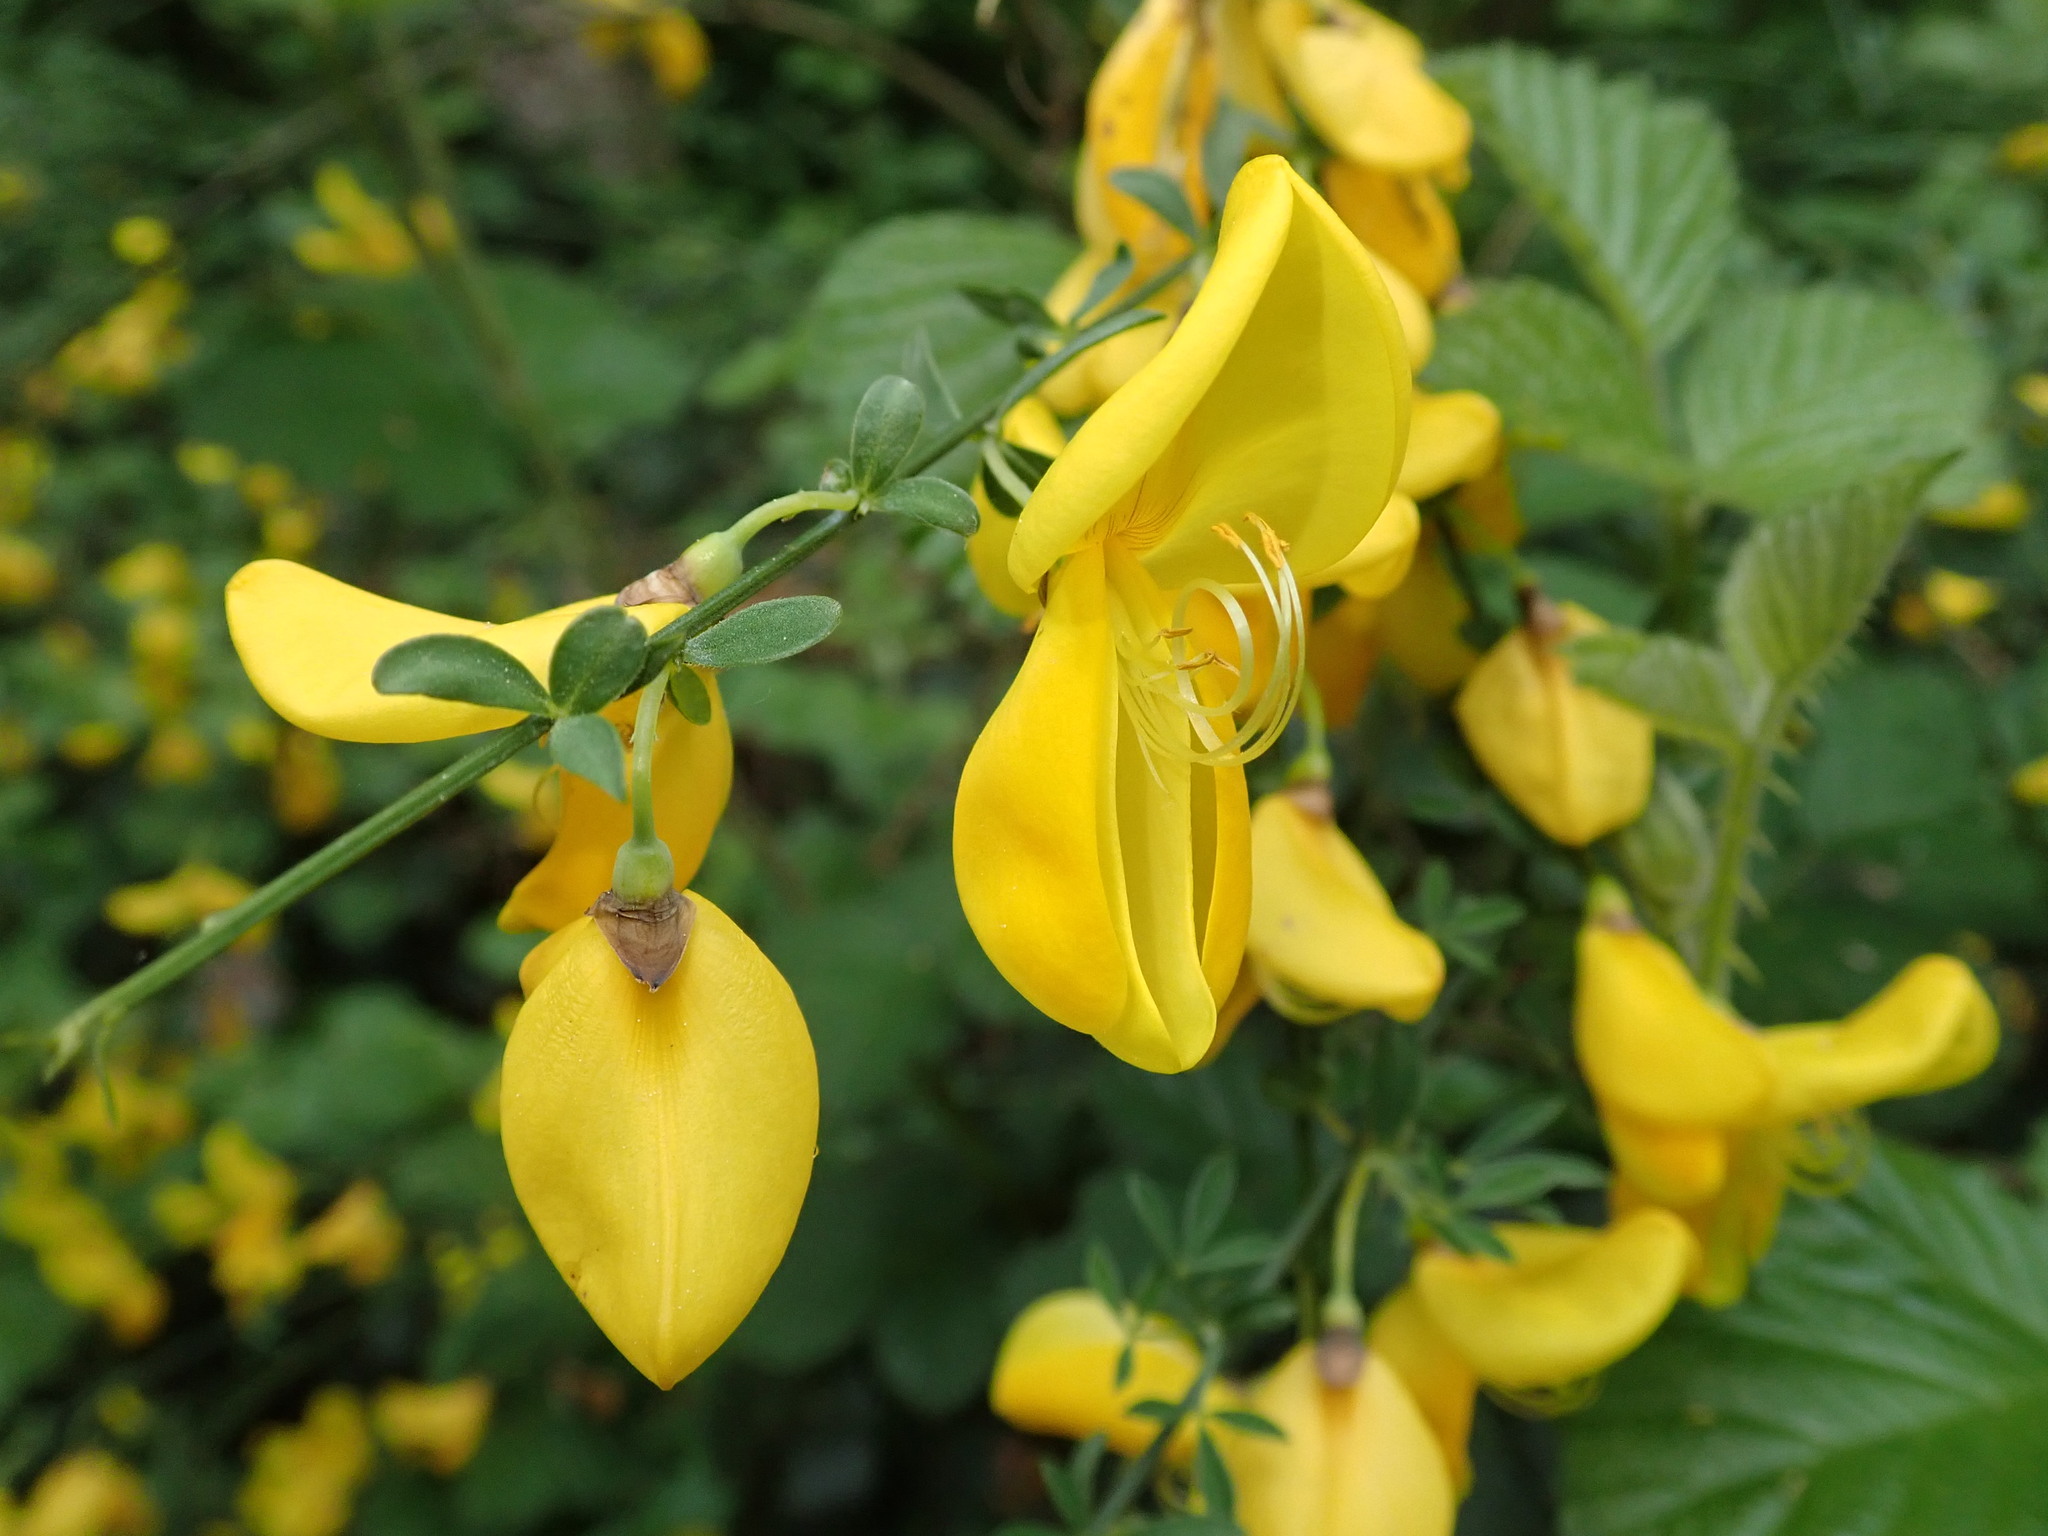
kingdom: Plantae
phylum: Tracheophyta
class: Magnoliopsida
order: Fabales
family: Fabaceae
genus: Cytisus
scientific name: Cytisus scoparius
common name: Scotch broom
